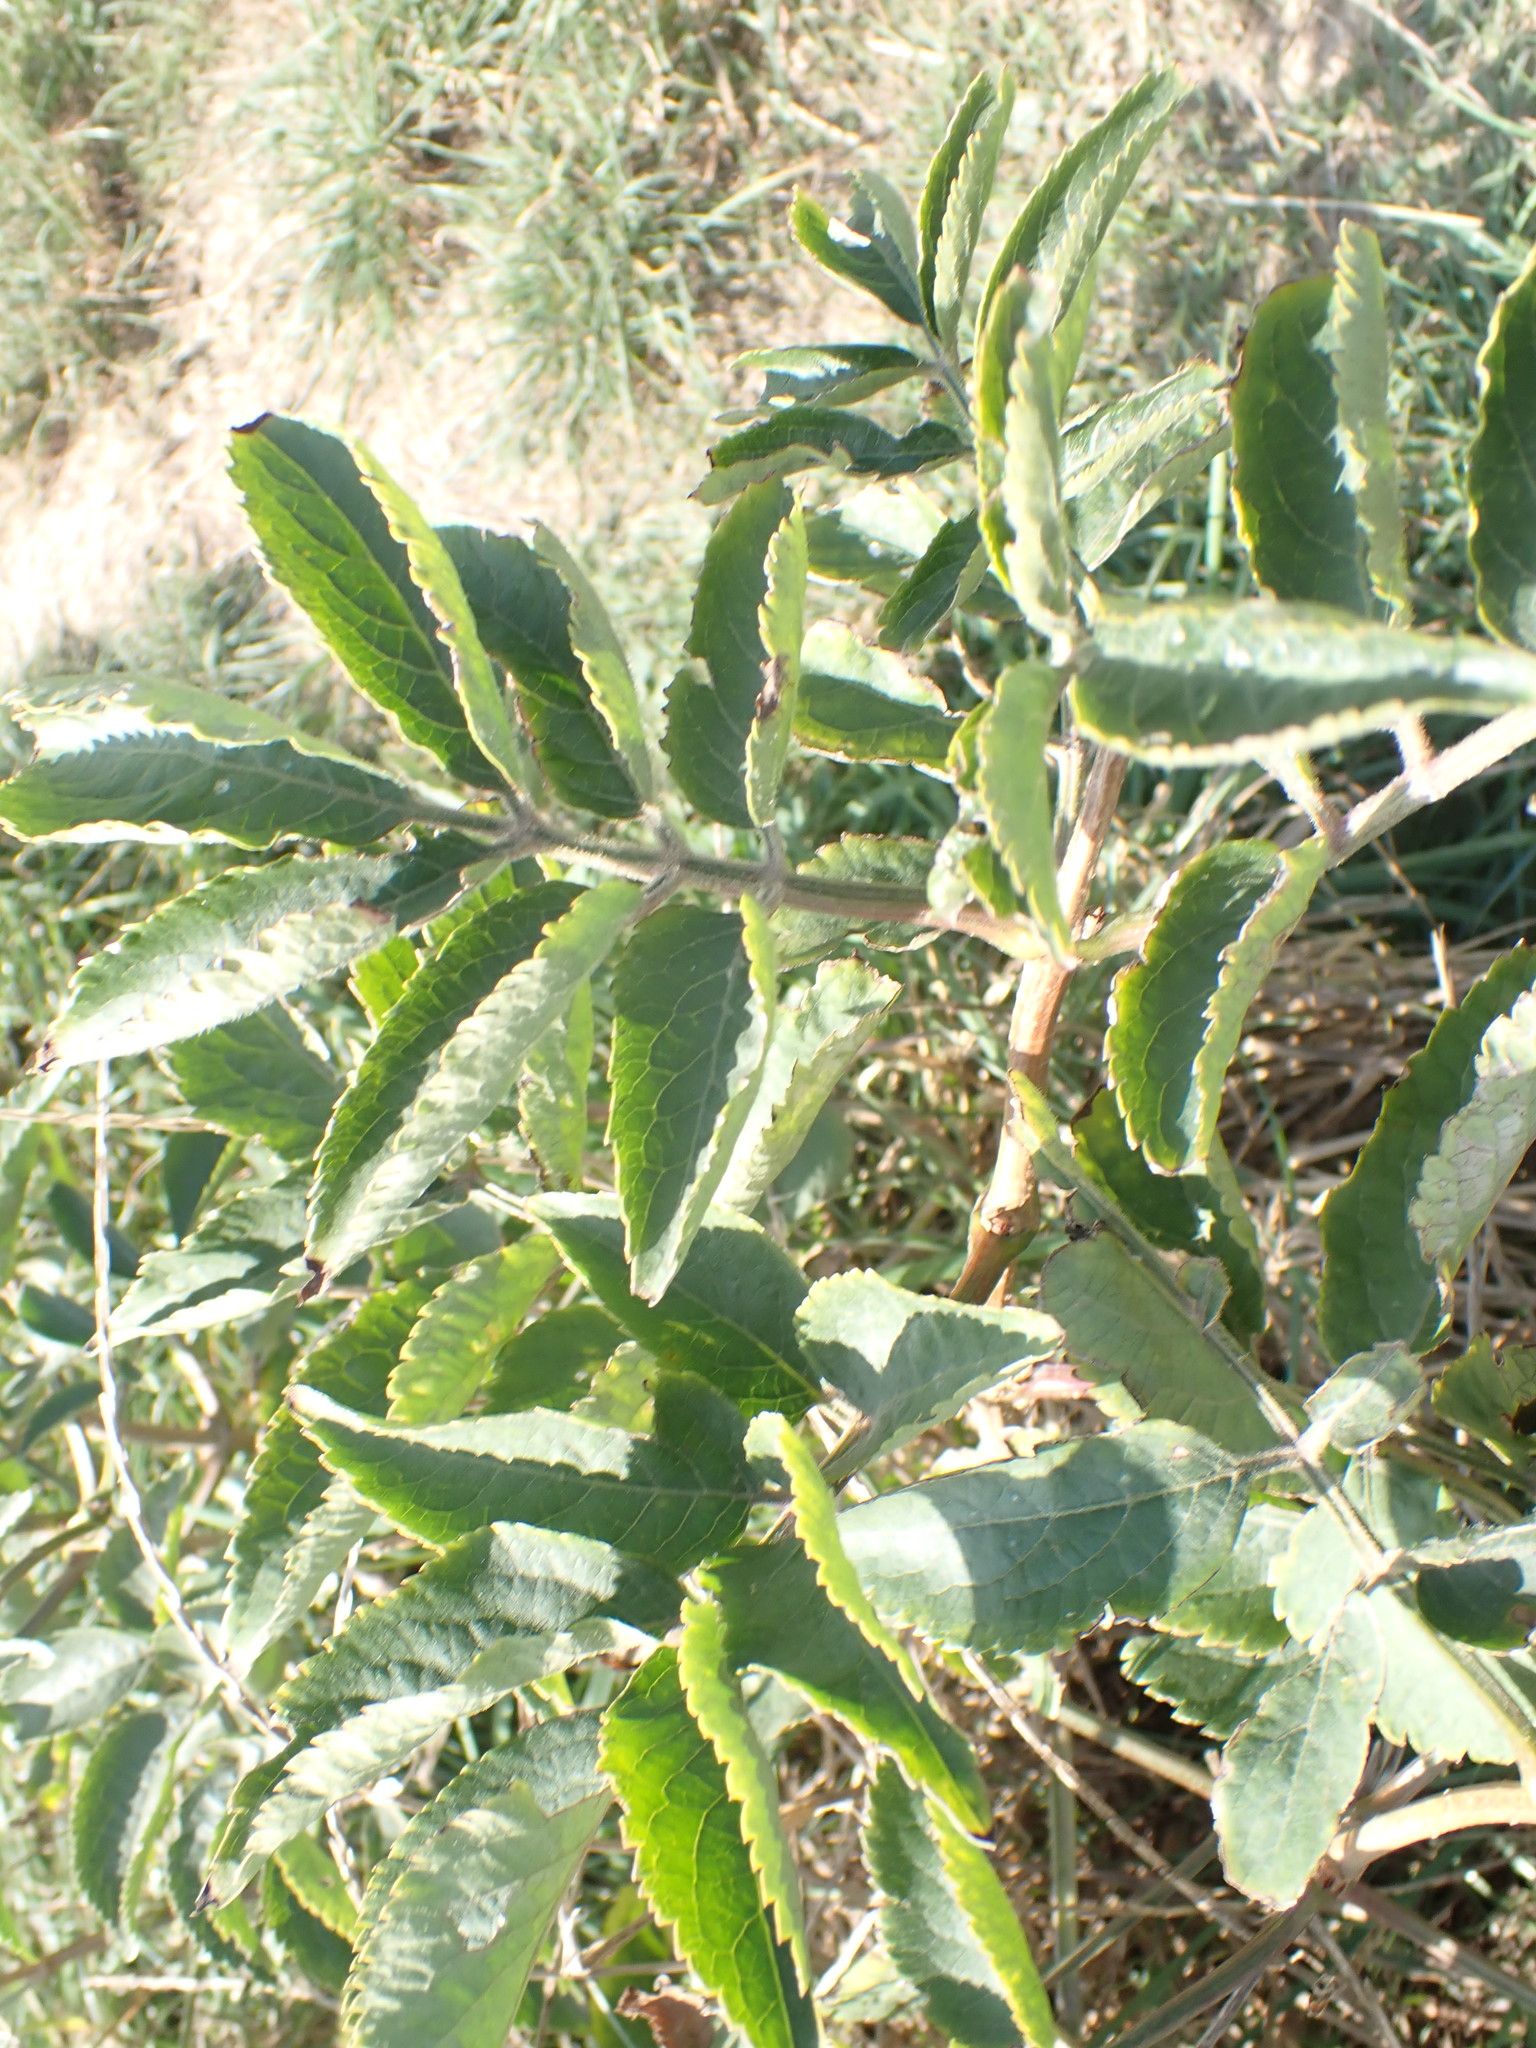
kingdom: Plantae
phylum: Tracheophyta
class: Magnoliopsida
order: Dipsacales
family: Viburnaceae
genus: Sambucus
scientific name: Sambucus nigra
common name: Elder
